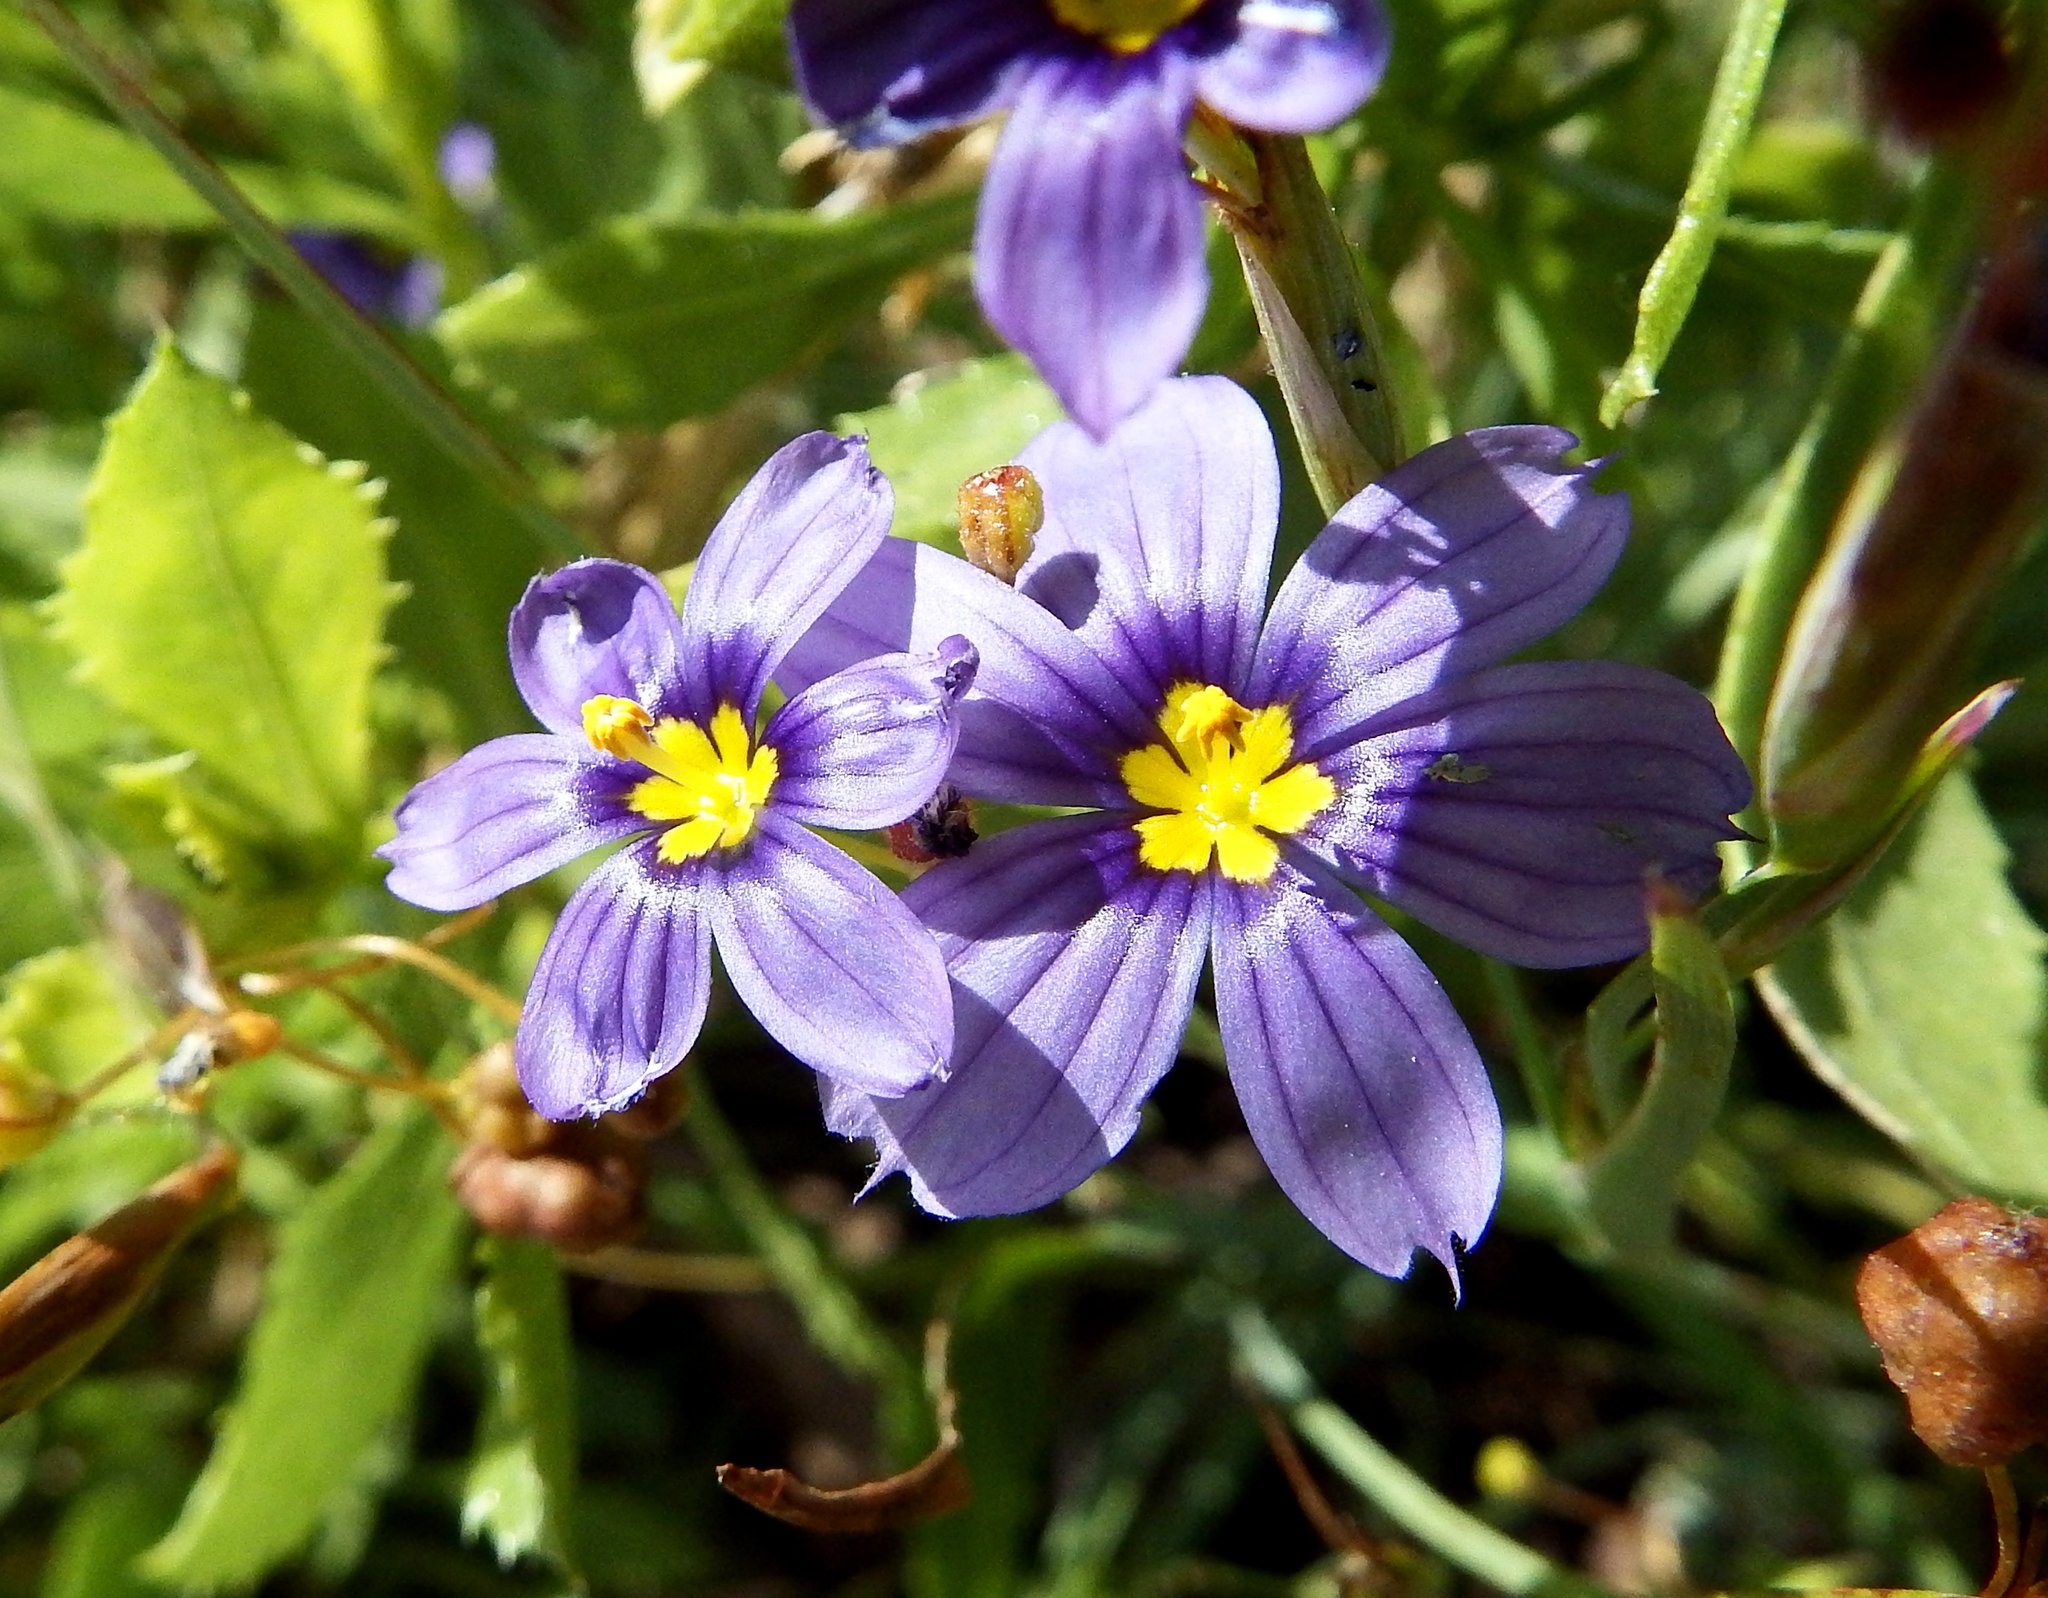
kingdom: Plantae
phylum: Tracheophyta
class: Liliopsida
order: Asparagales
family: Iridaceae
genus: Sisyrinchium
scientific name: Sisyrinchium bellum
